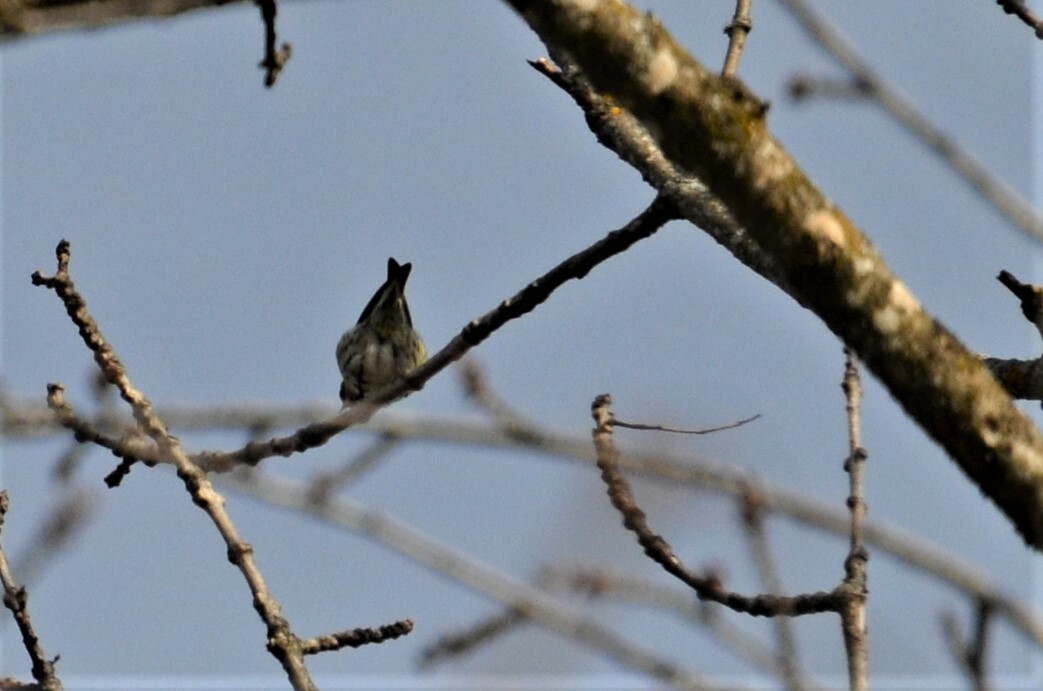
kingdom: Animalia
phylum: Chordata
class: Aves
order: Passeriformes
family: Fringillidae
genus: Spinus
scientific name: Spinus spinus
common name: Eurasian siskin
